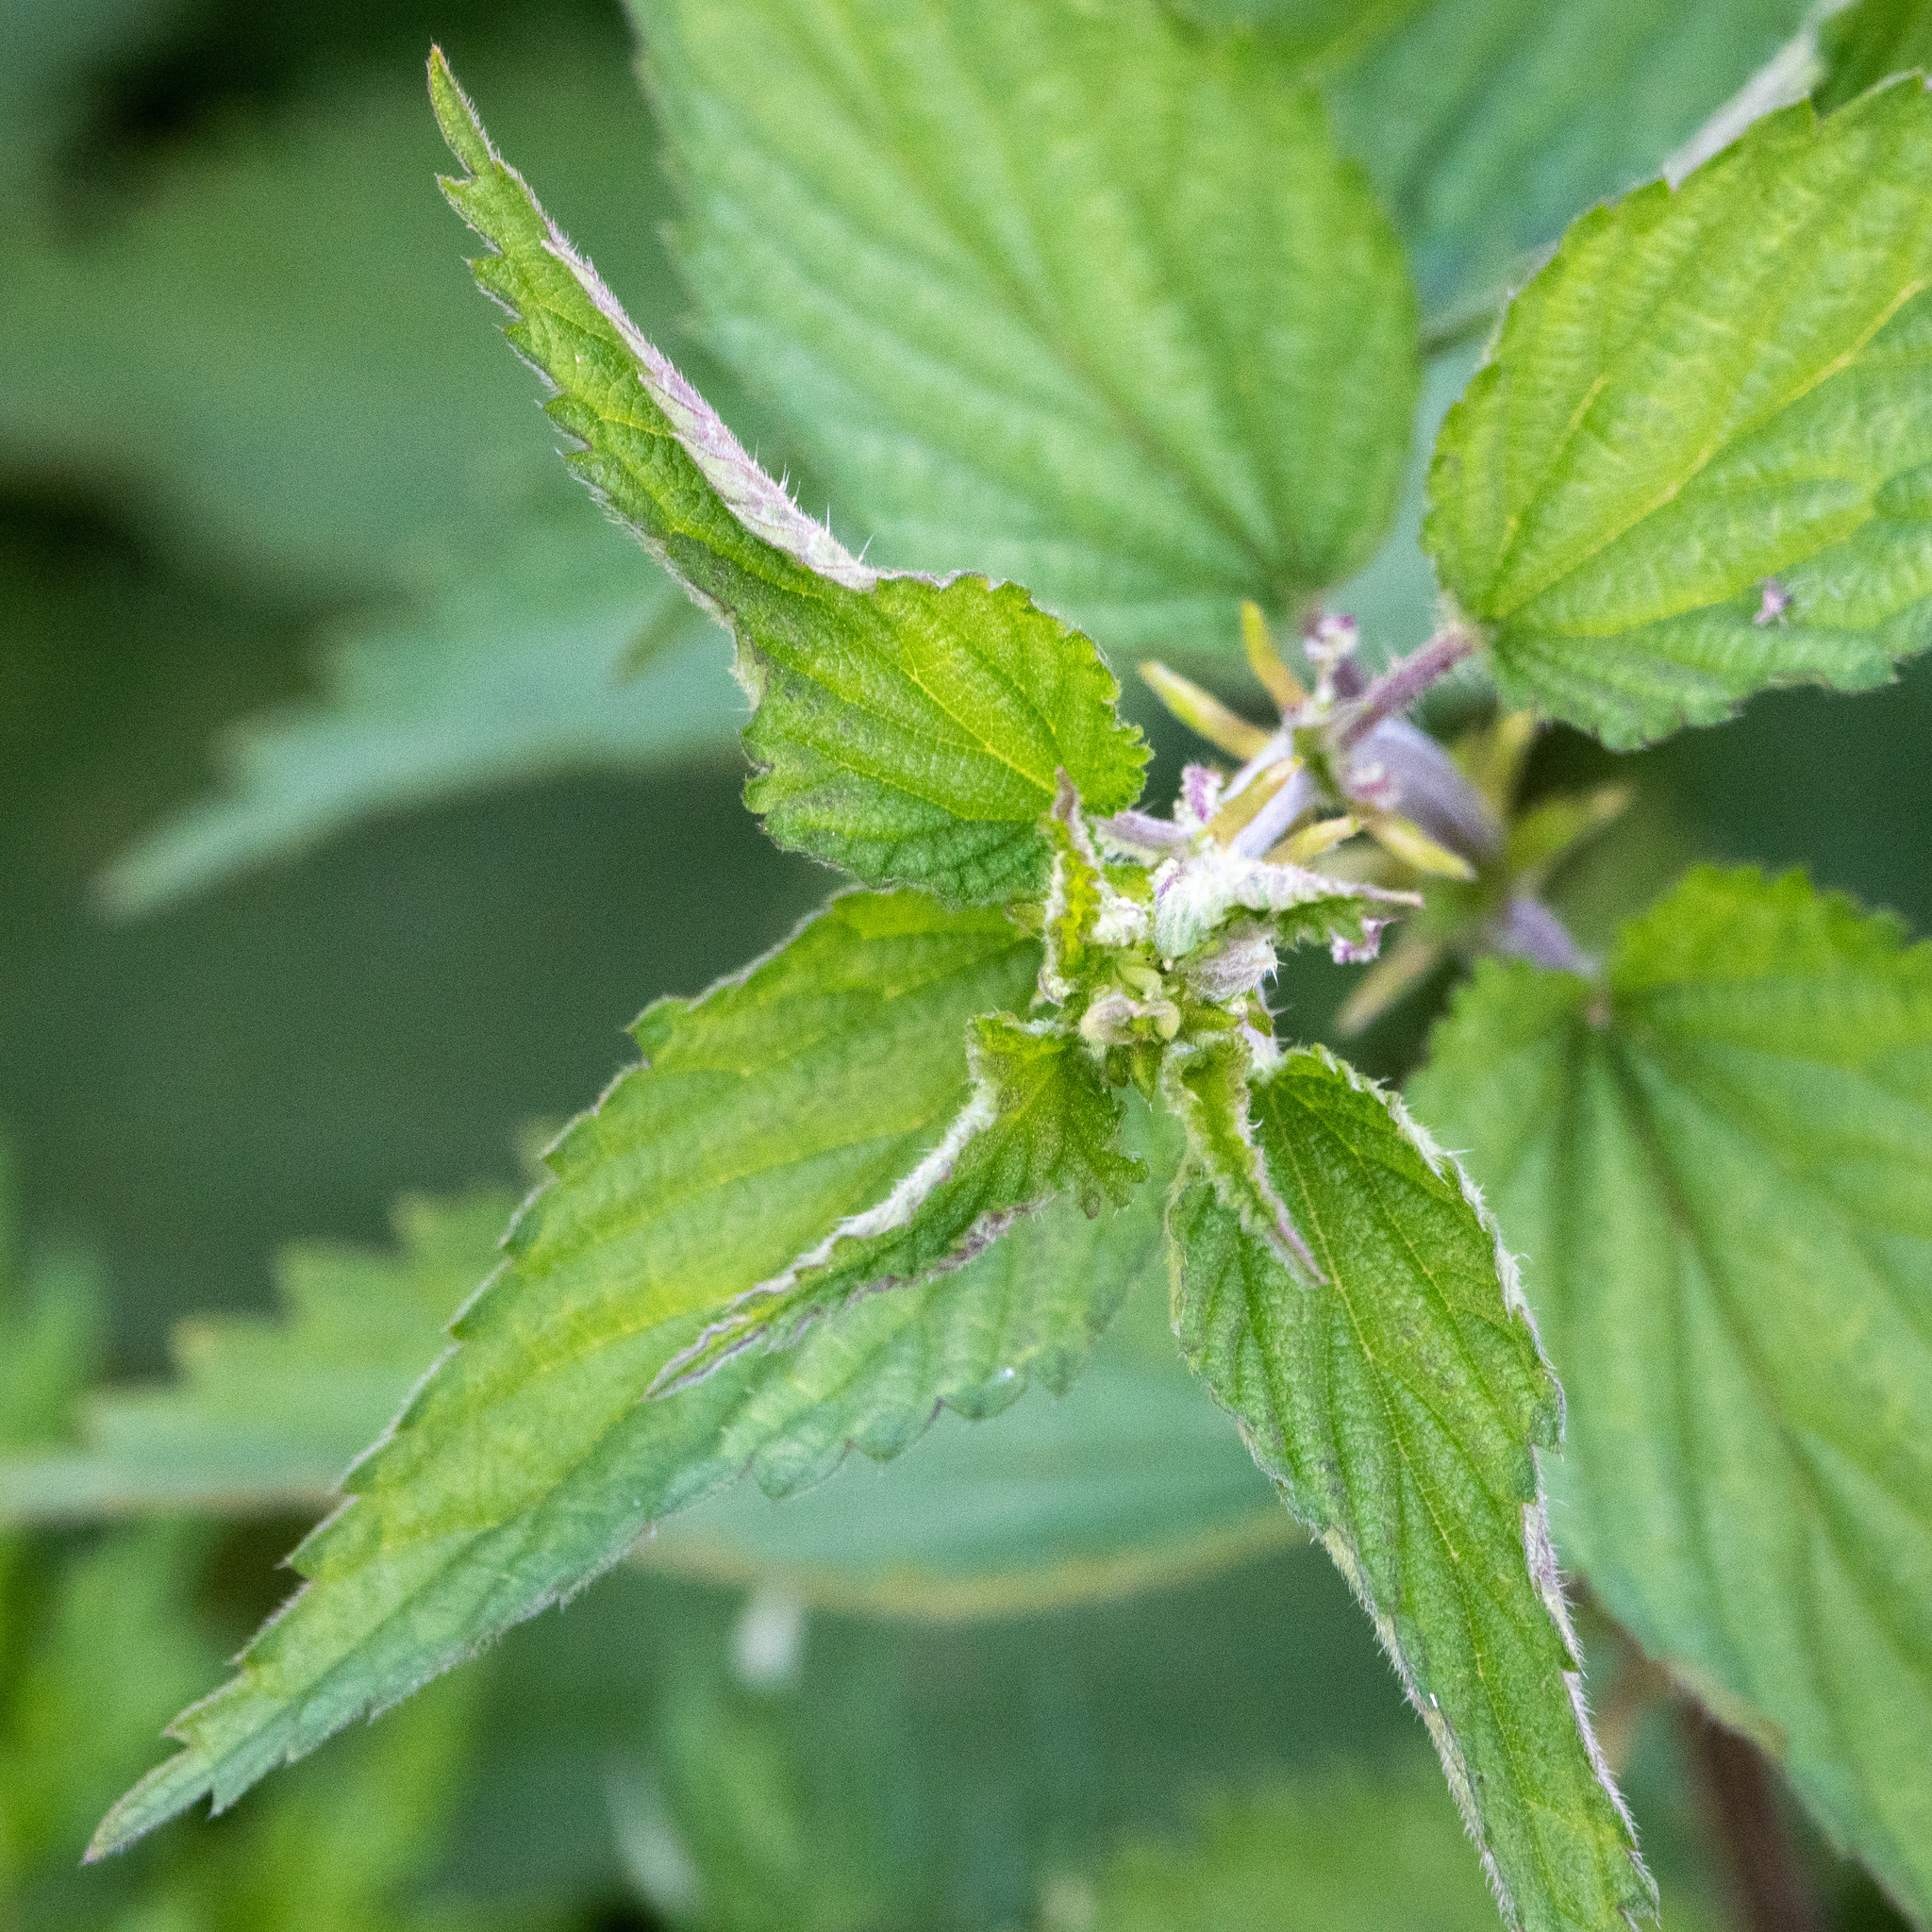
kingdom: Plantae
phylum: Tracheophyta
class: Magnoliopsida
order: Rosales
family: Urticaceae
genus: Urtica
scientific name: Urtica dioica
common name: Common nettle
